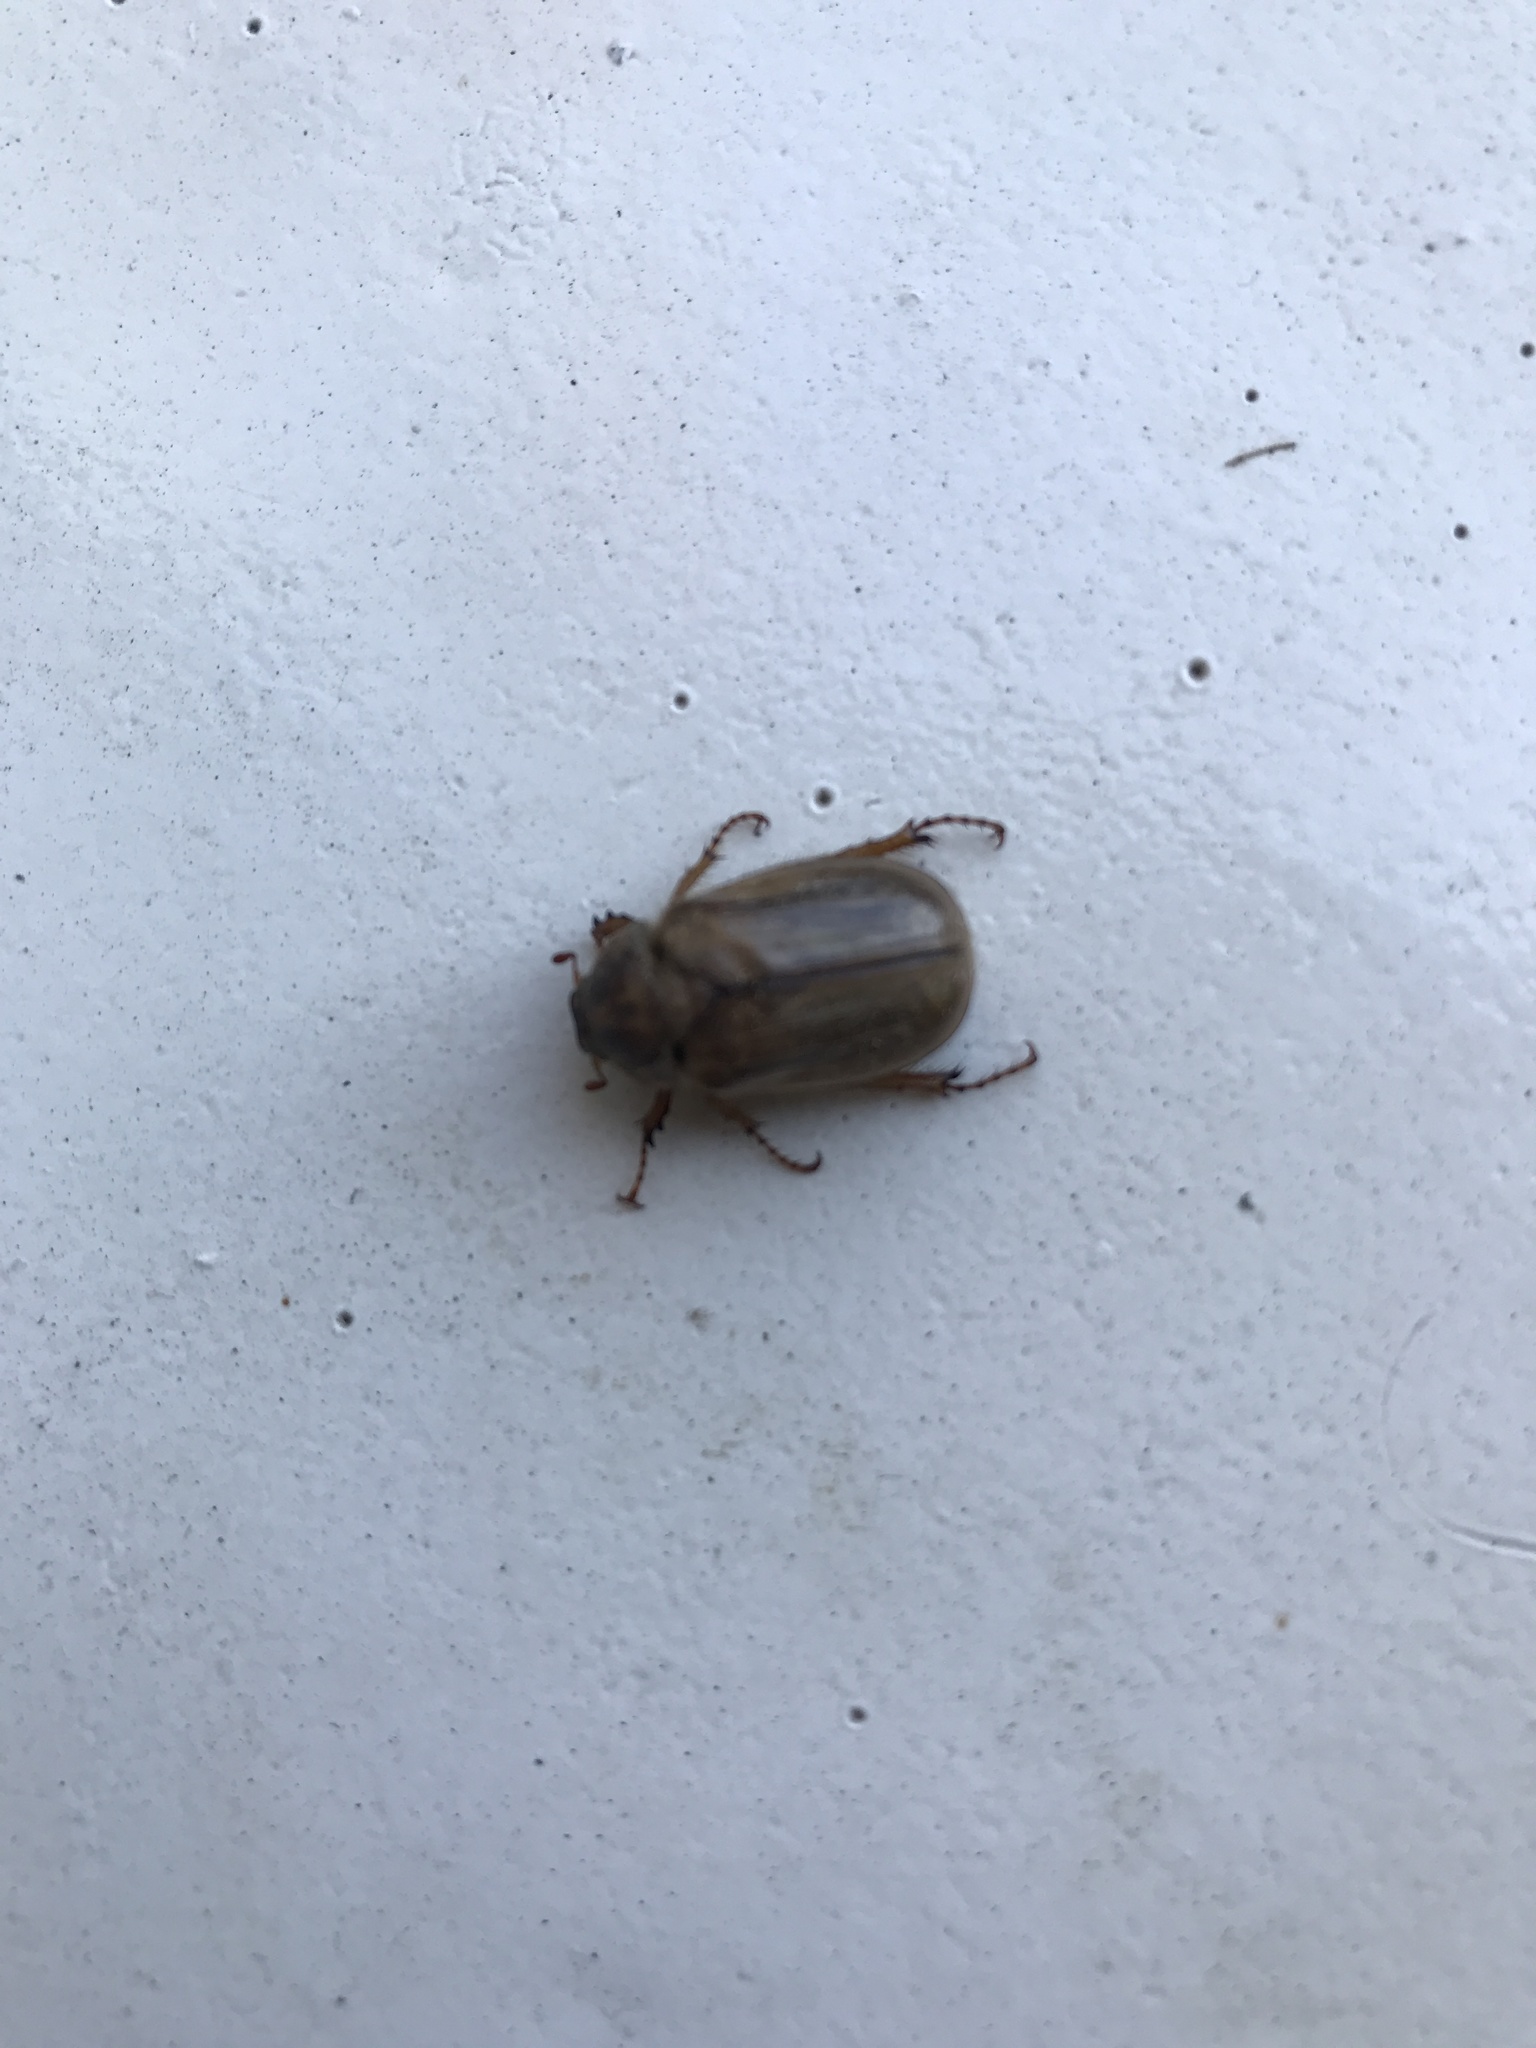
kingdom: Animalia
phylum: Arthropoda
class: Insecta
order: Coleoptera
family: Scarabaeidae
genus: Amphimallon
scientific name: Amphimallon solstitiale
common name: Summer chafer
